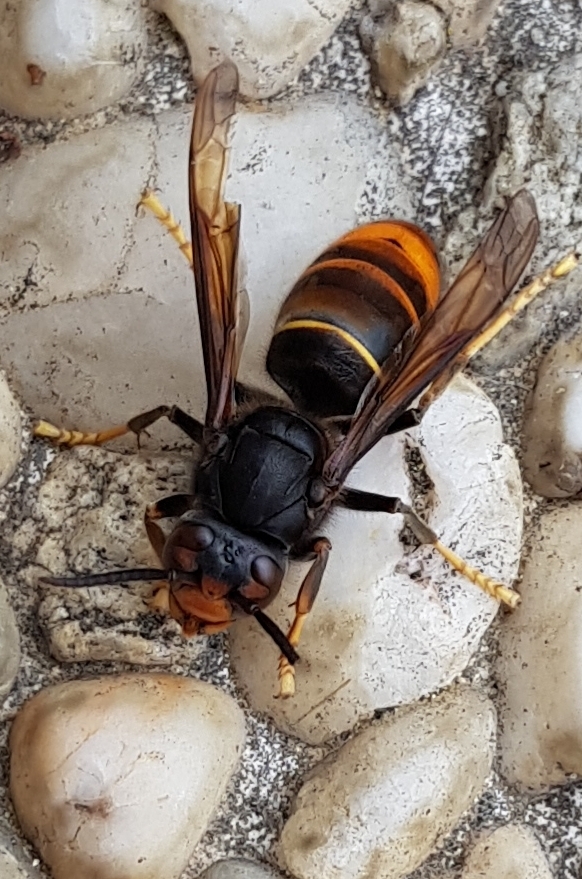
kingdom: Animalia
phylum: Arthropoda
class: Insecta
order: Hymenoptera
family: Vespidae
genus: Vespa
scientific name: Vespa velutina
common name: Asian hornet
